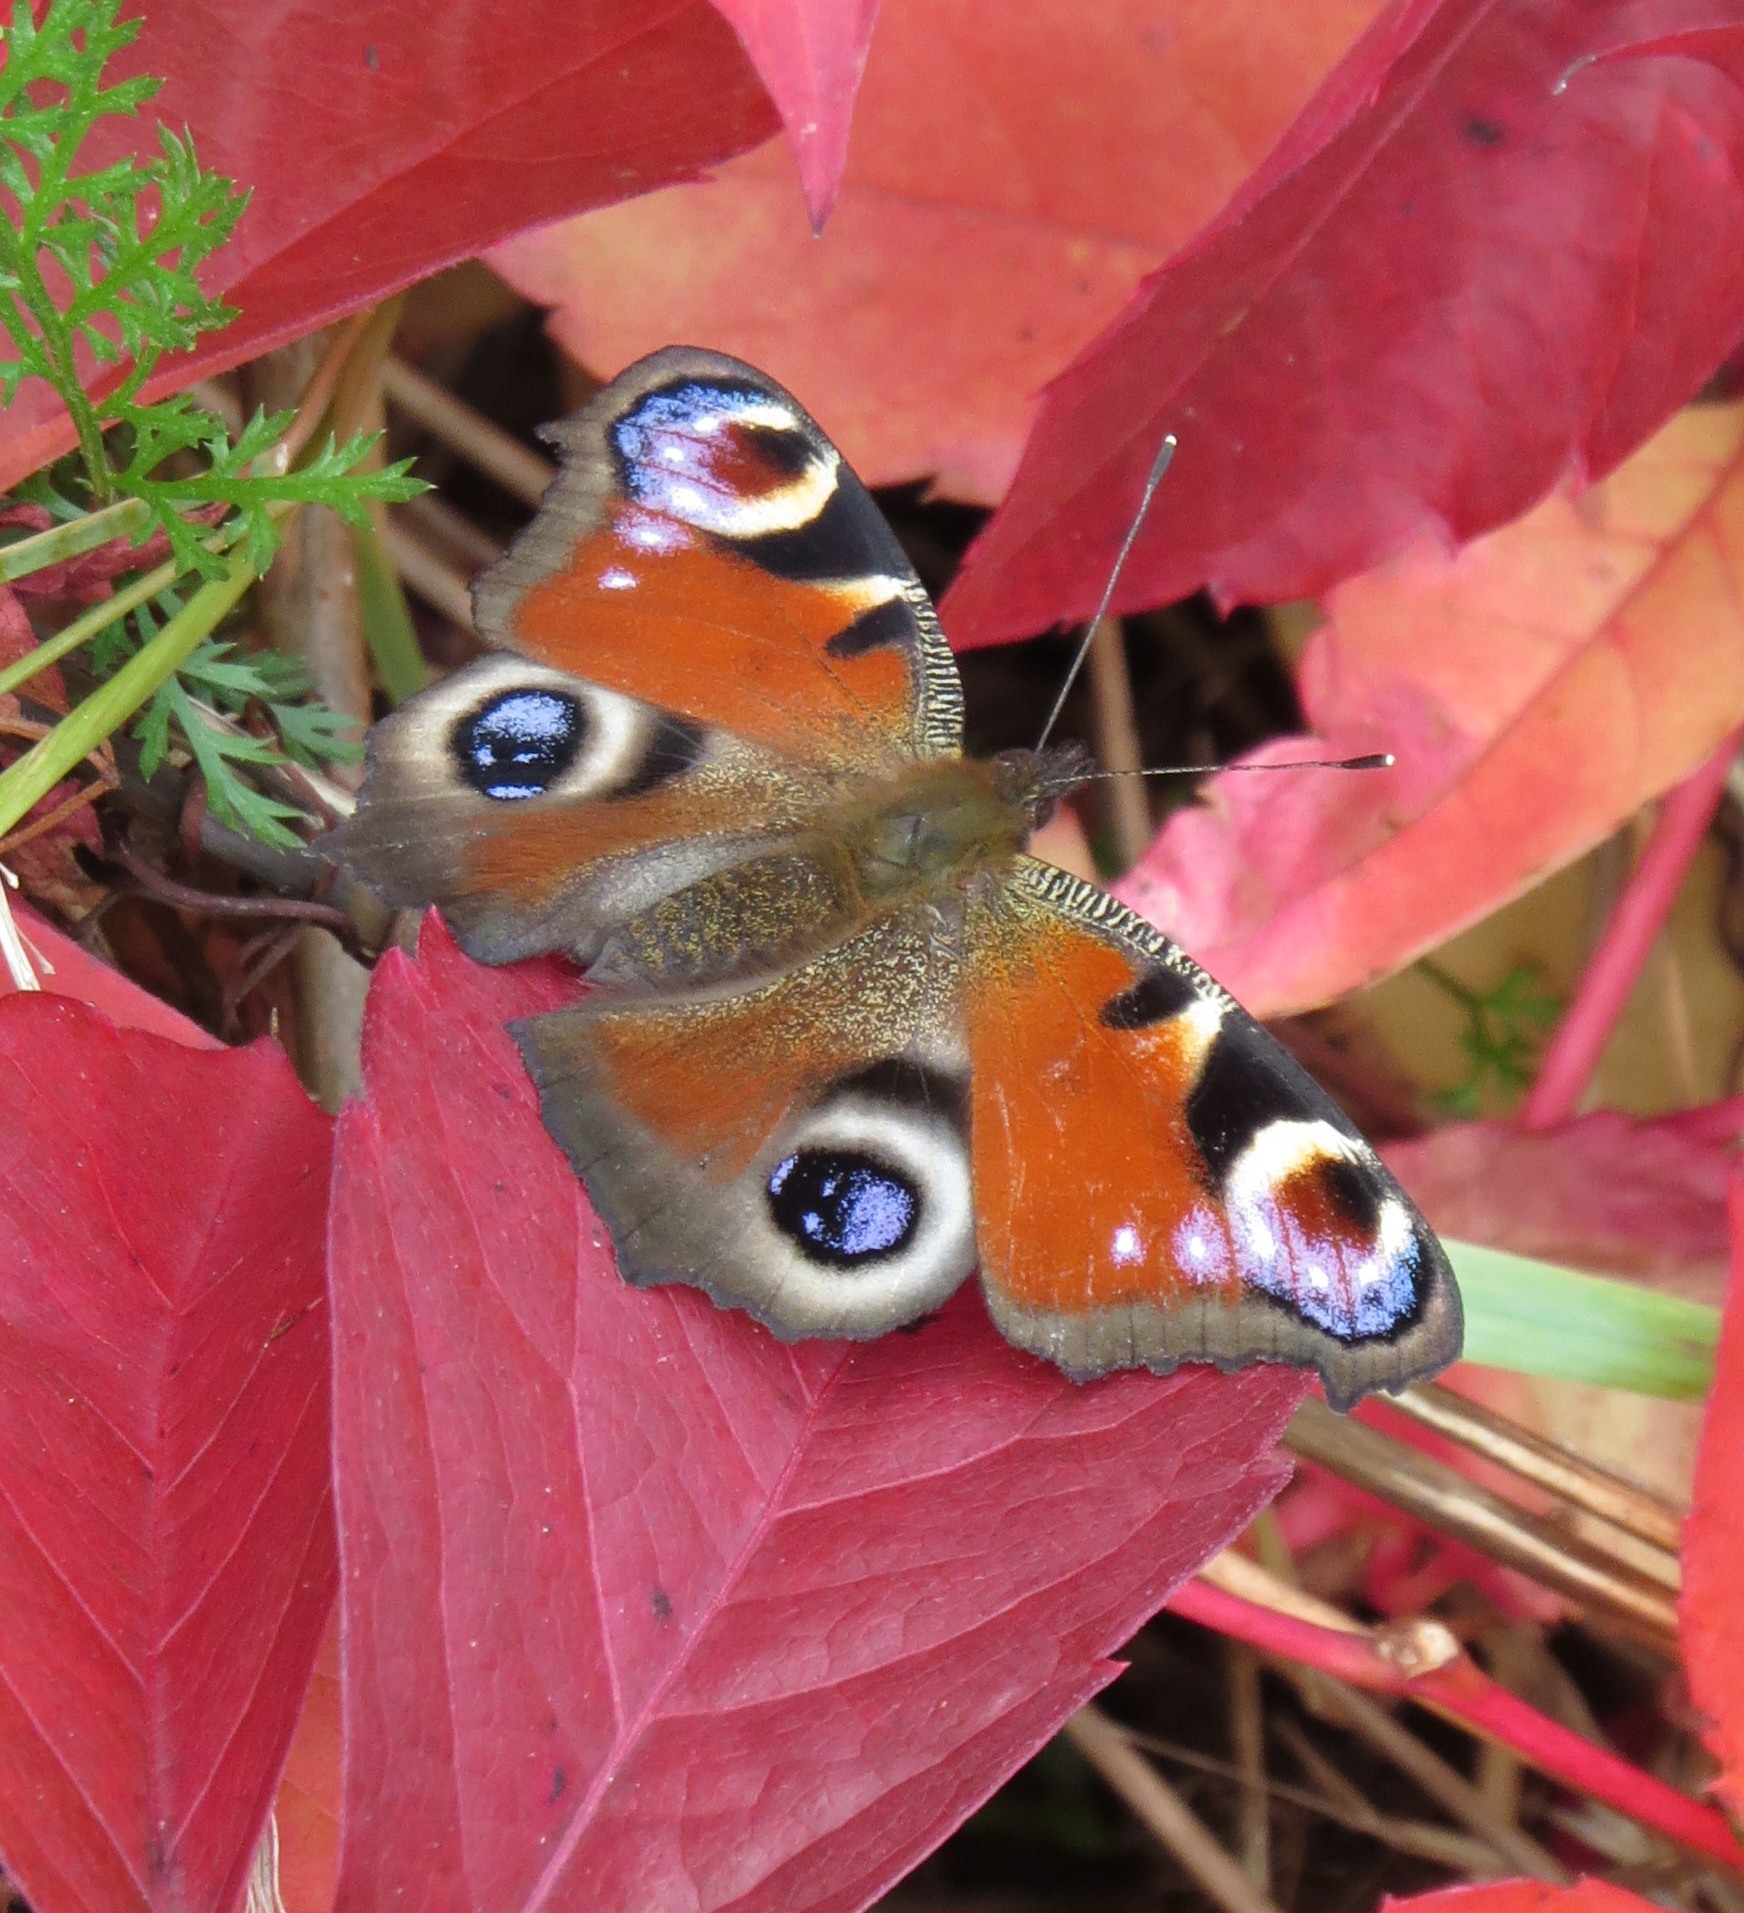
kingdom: Animalia
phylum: Arthropoda
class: Insecta
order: Lepidoptera
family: Nymphalidae
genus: Aglais
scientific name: Aglais io
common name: Peacock
